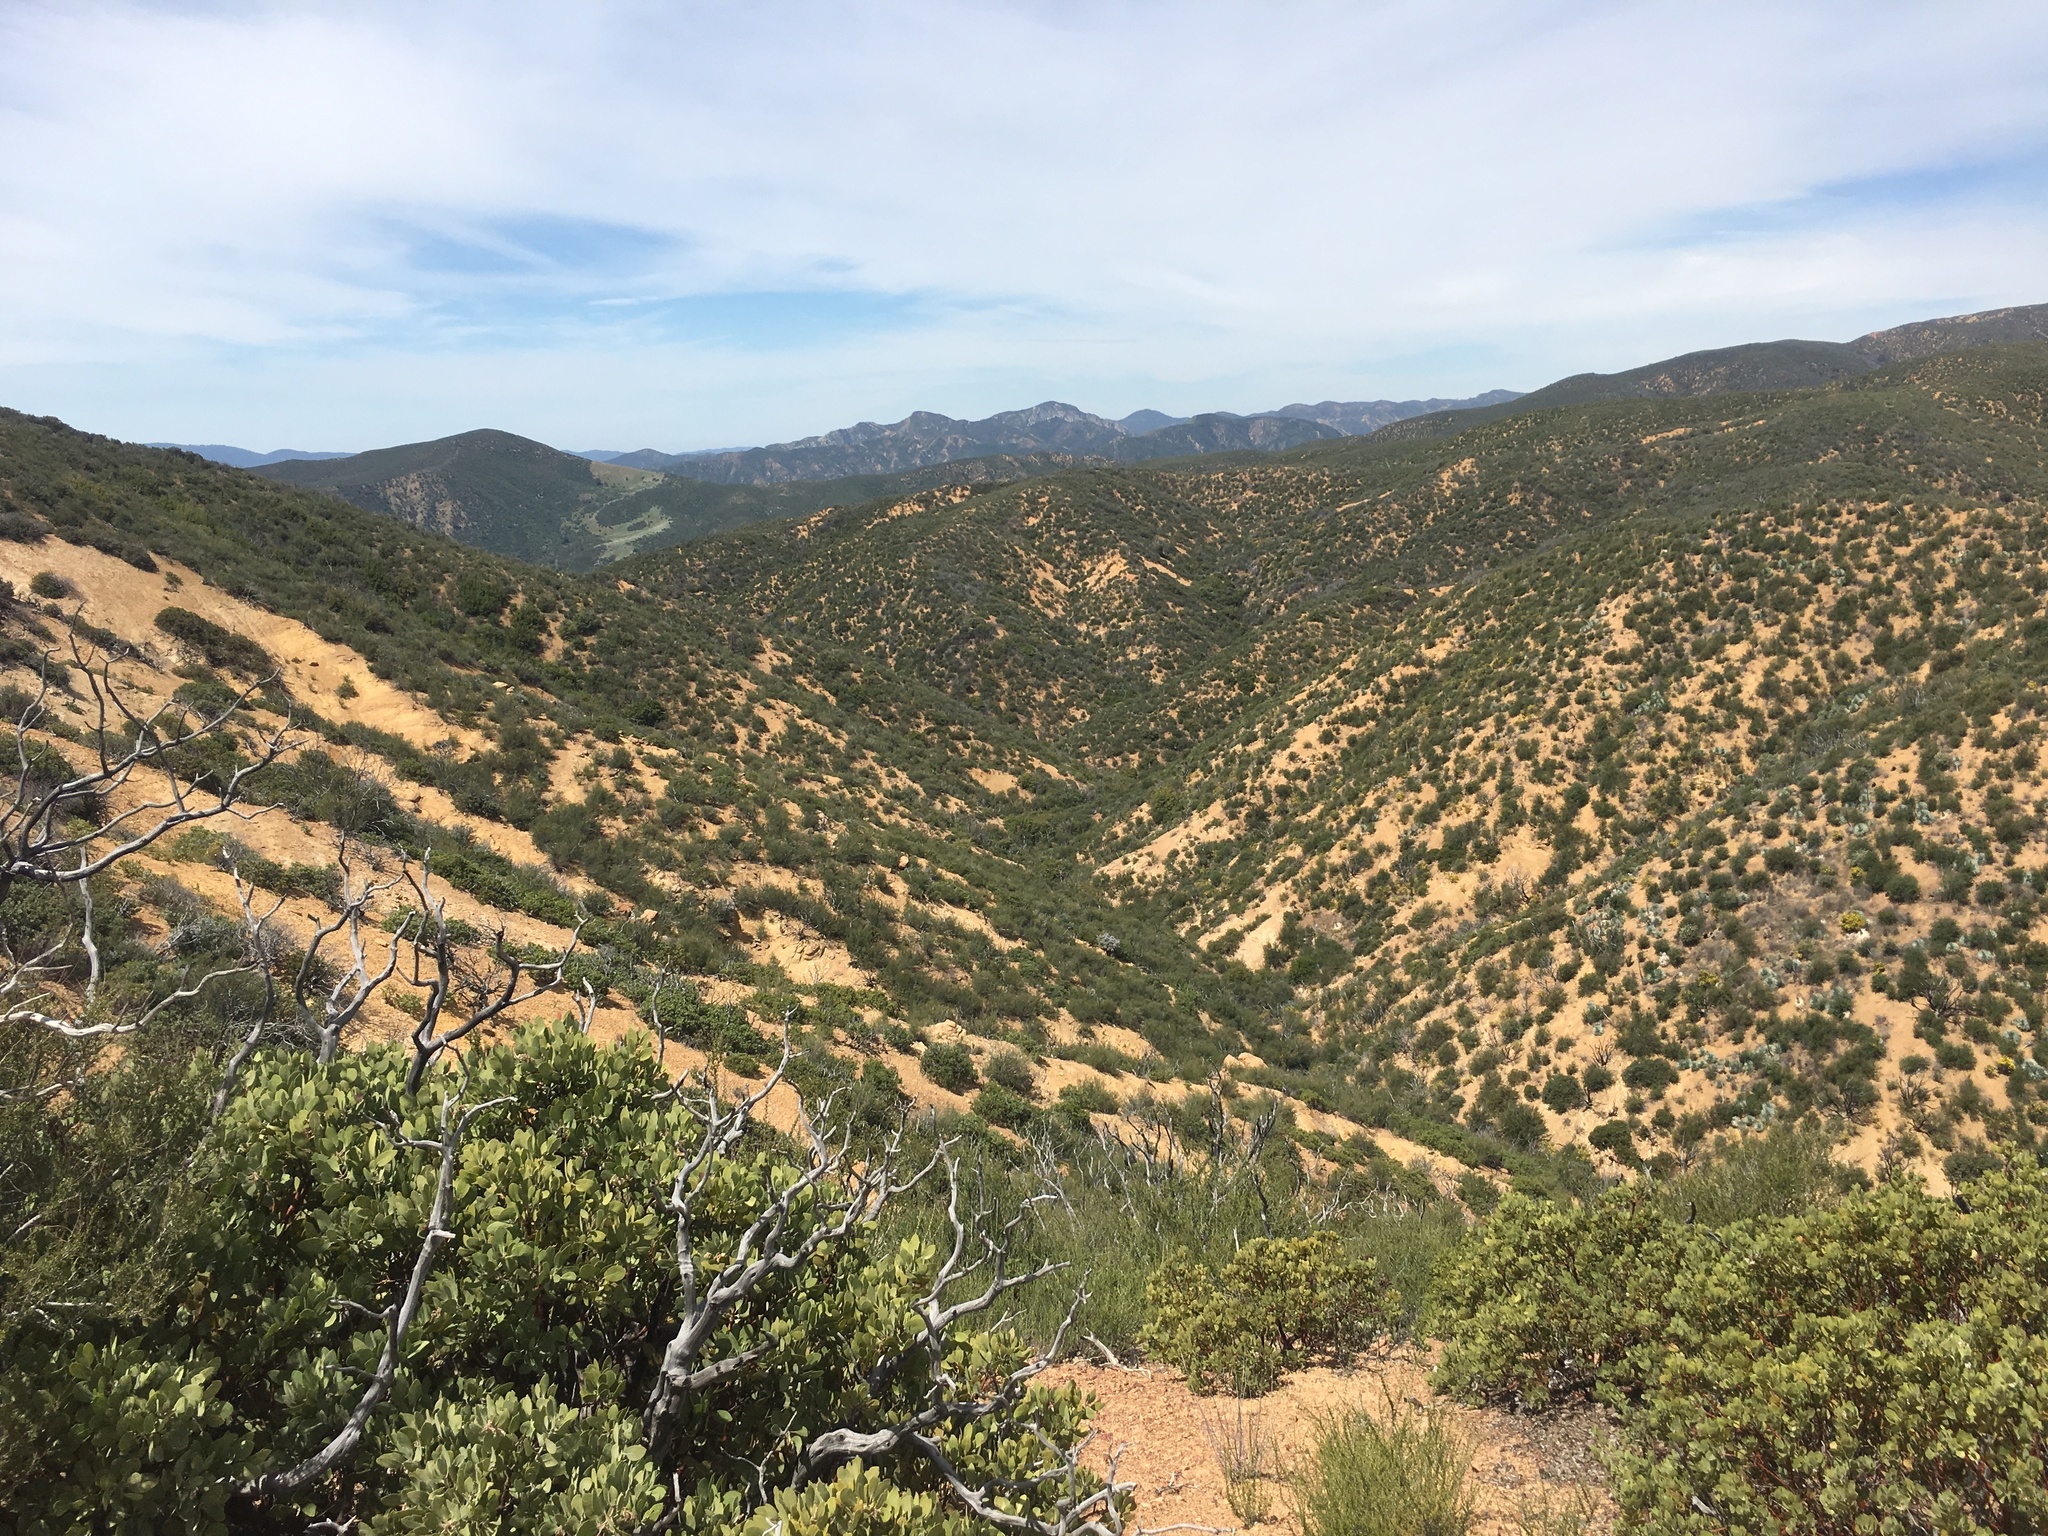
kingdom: Plantae
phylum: Tracheophyta
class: Magnoliopsida
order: Rosales
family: Rosaceae
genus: Adenostoma
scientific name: Adenostoma fasciculatum
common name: Chamise
